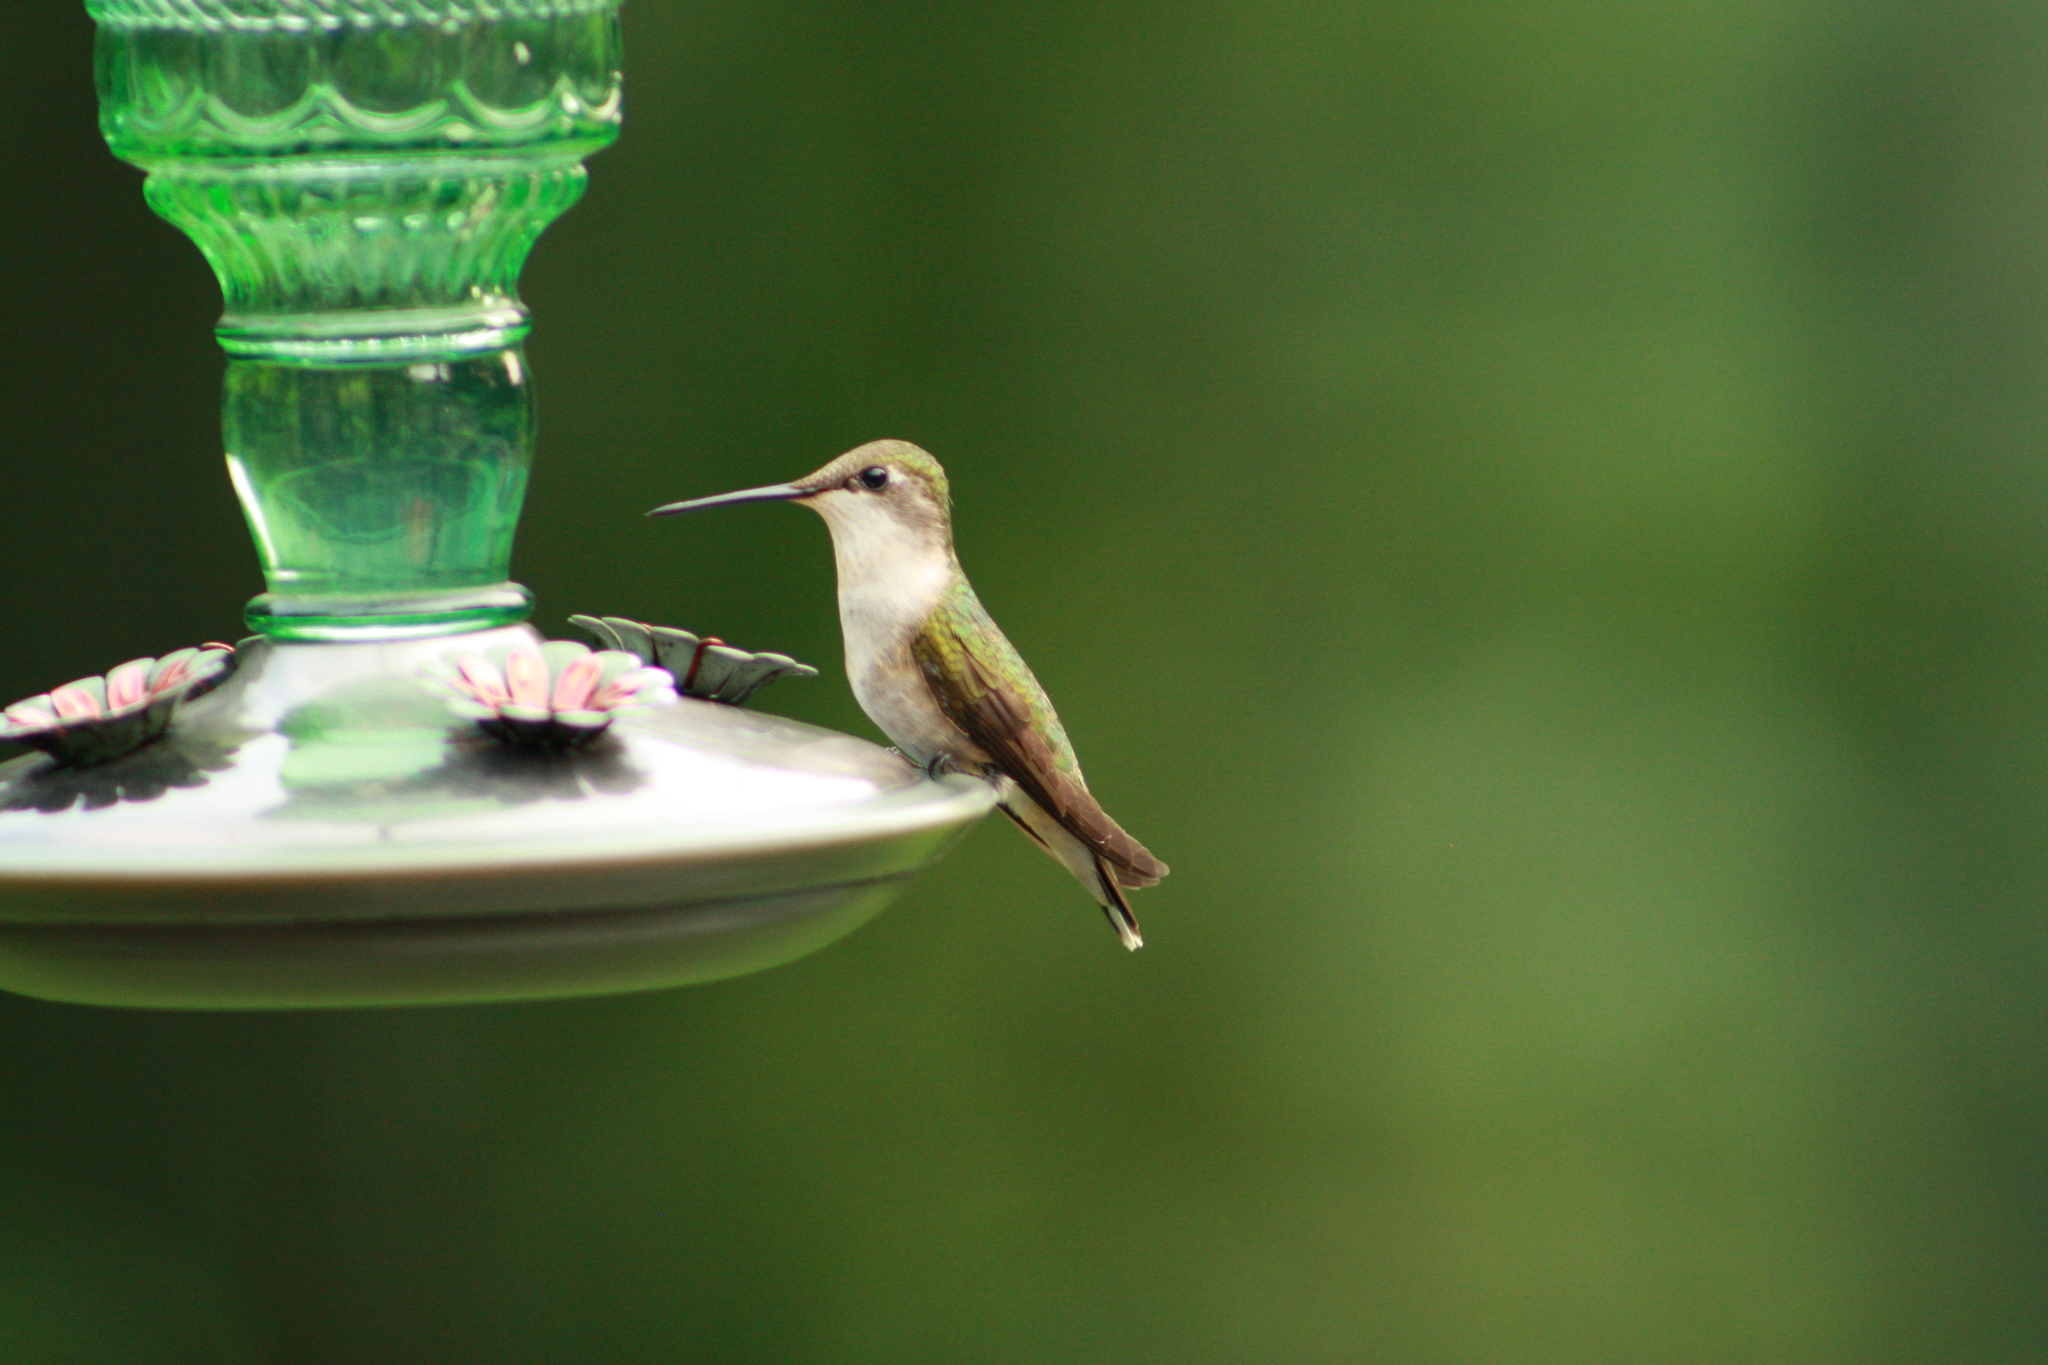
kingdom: Animalia
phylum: Chordata
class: Aves
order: Apodiformes
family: Trochilidae
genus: Archilochus
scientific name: Archilochus colubris
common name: Ruby-throated hummingbird
